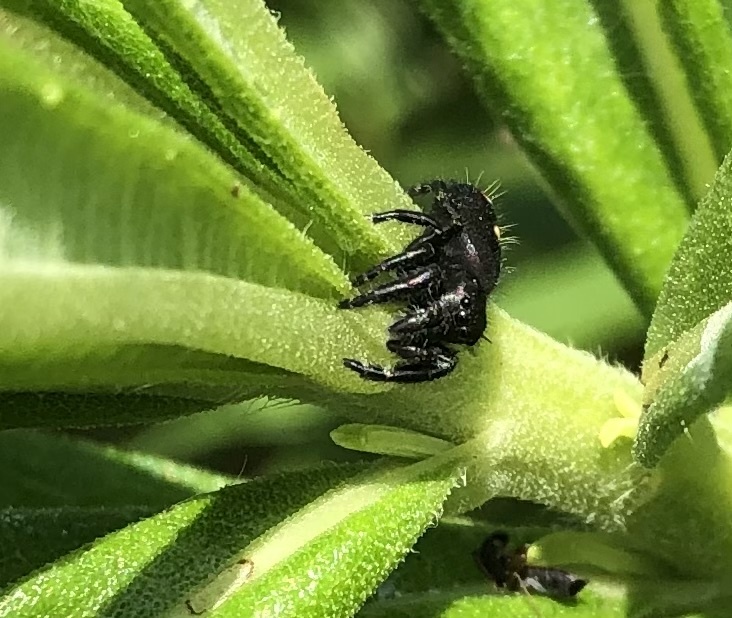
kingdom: Animalia
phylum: Arthropoda
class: Arachnida
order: Araneae
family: Salticidae
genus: Phidippus
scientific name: Phidippus audax
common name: Bold jumper
